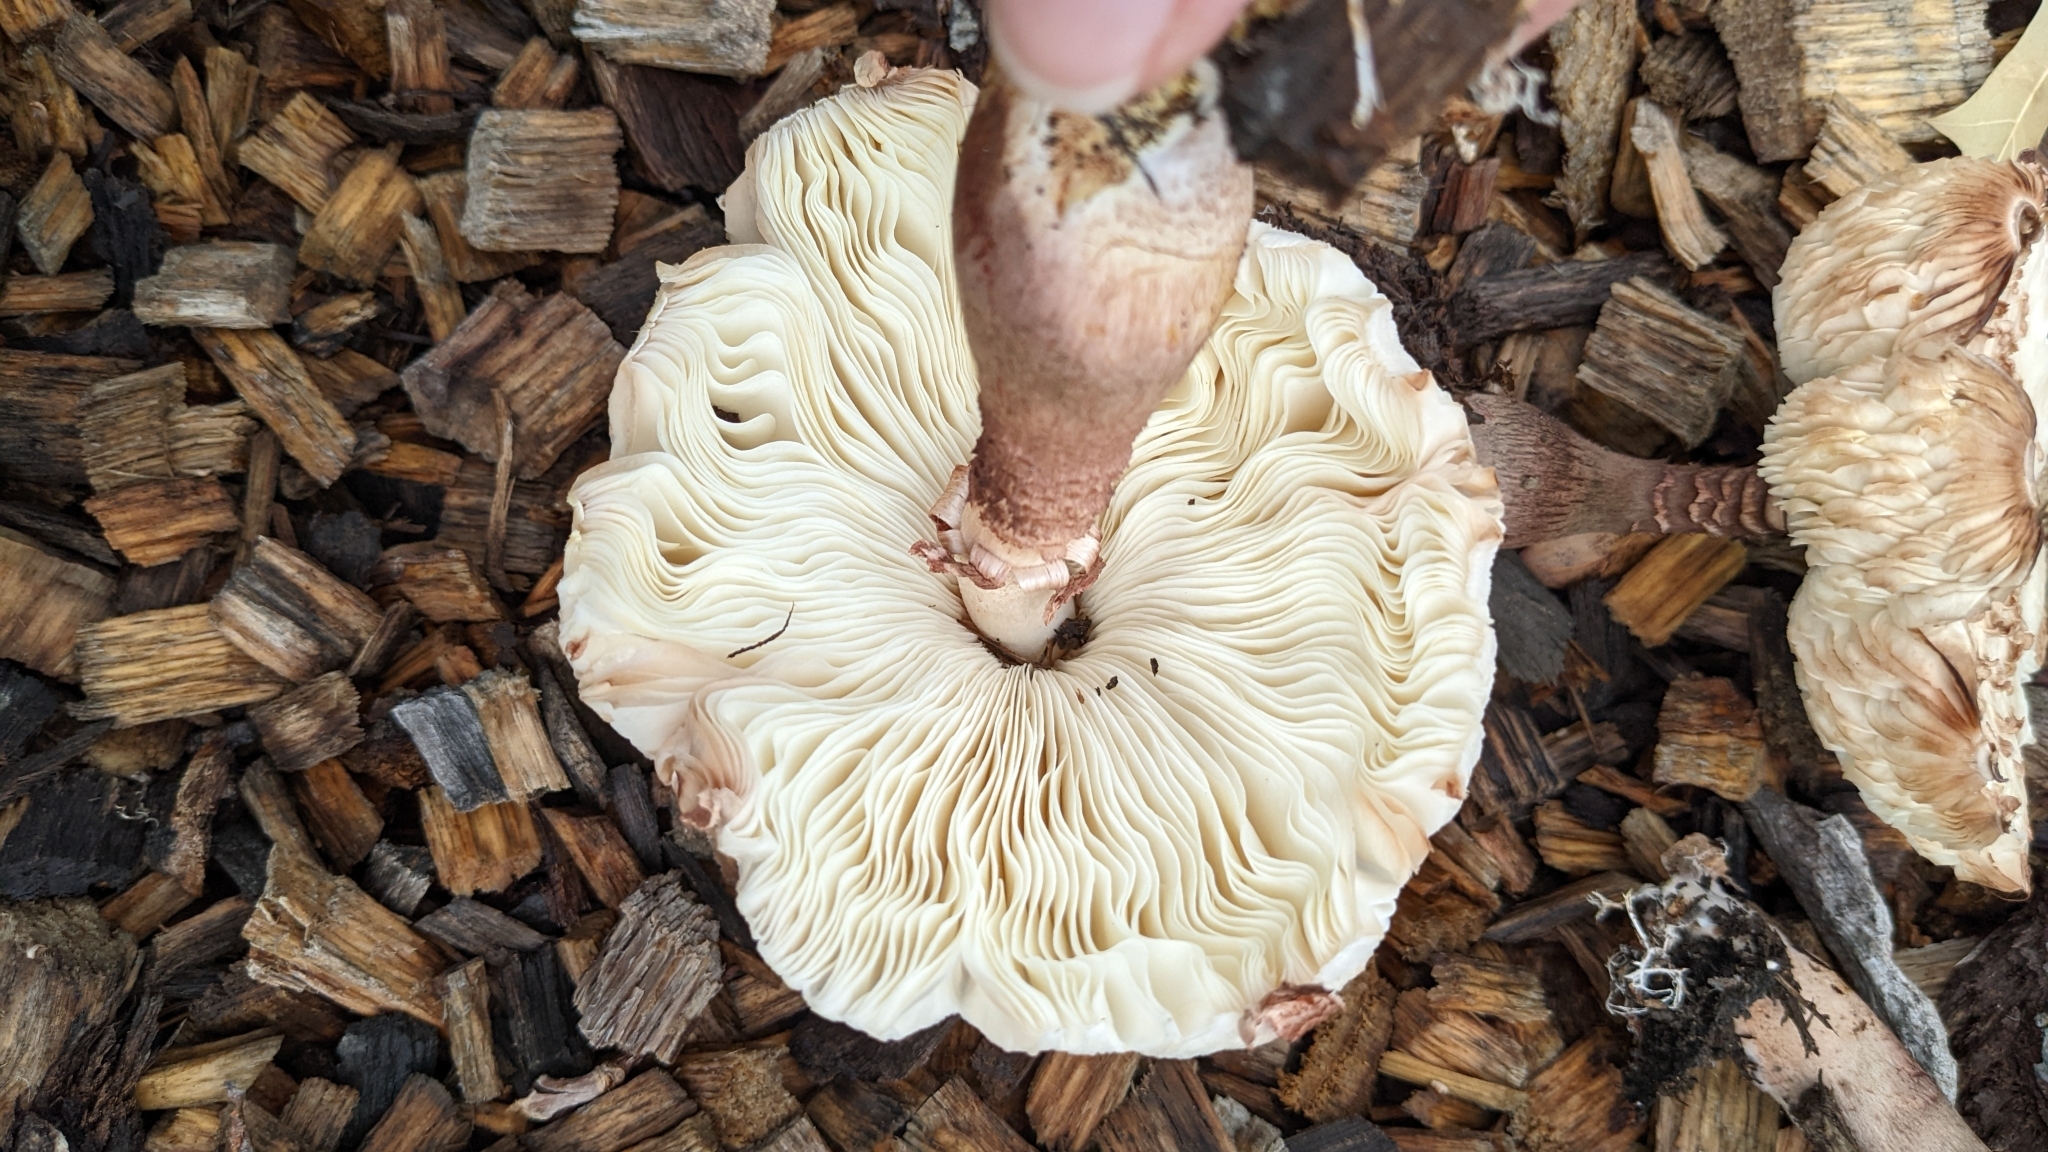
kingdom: Fungi
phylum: Basidiomycota
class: Agaricomycetes
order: Agaricales
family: Agaricaceae
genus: Leucoagaricus
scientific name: Leucoagaricus americanus
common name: Reddening lepiota
